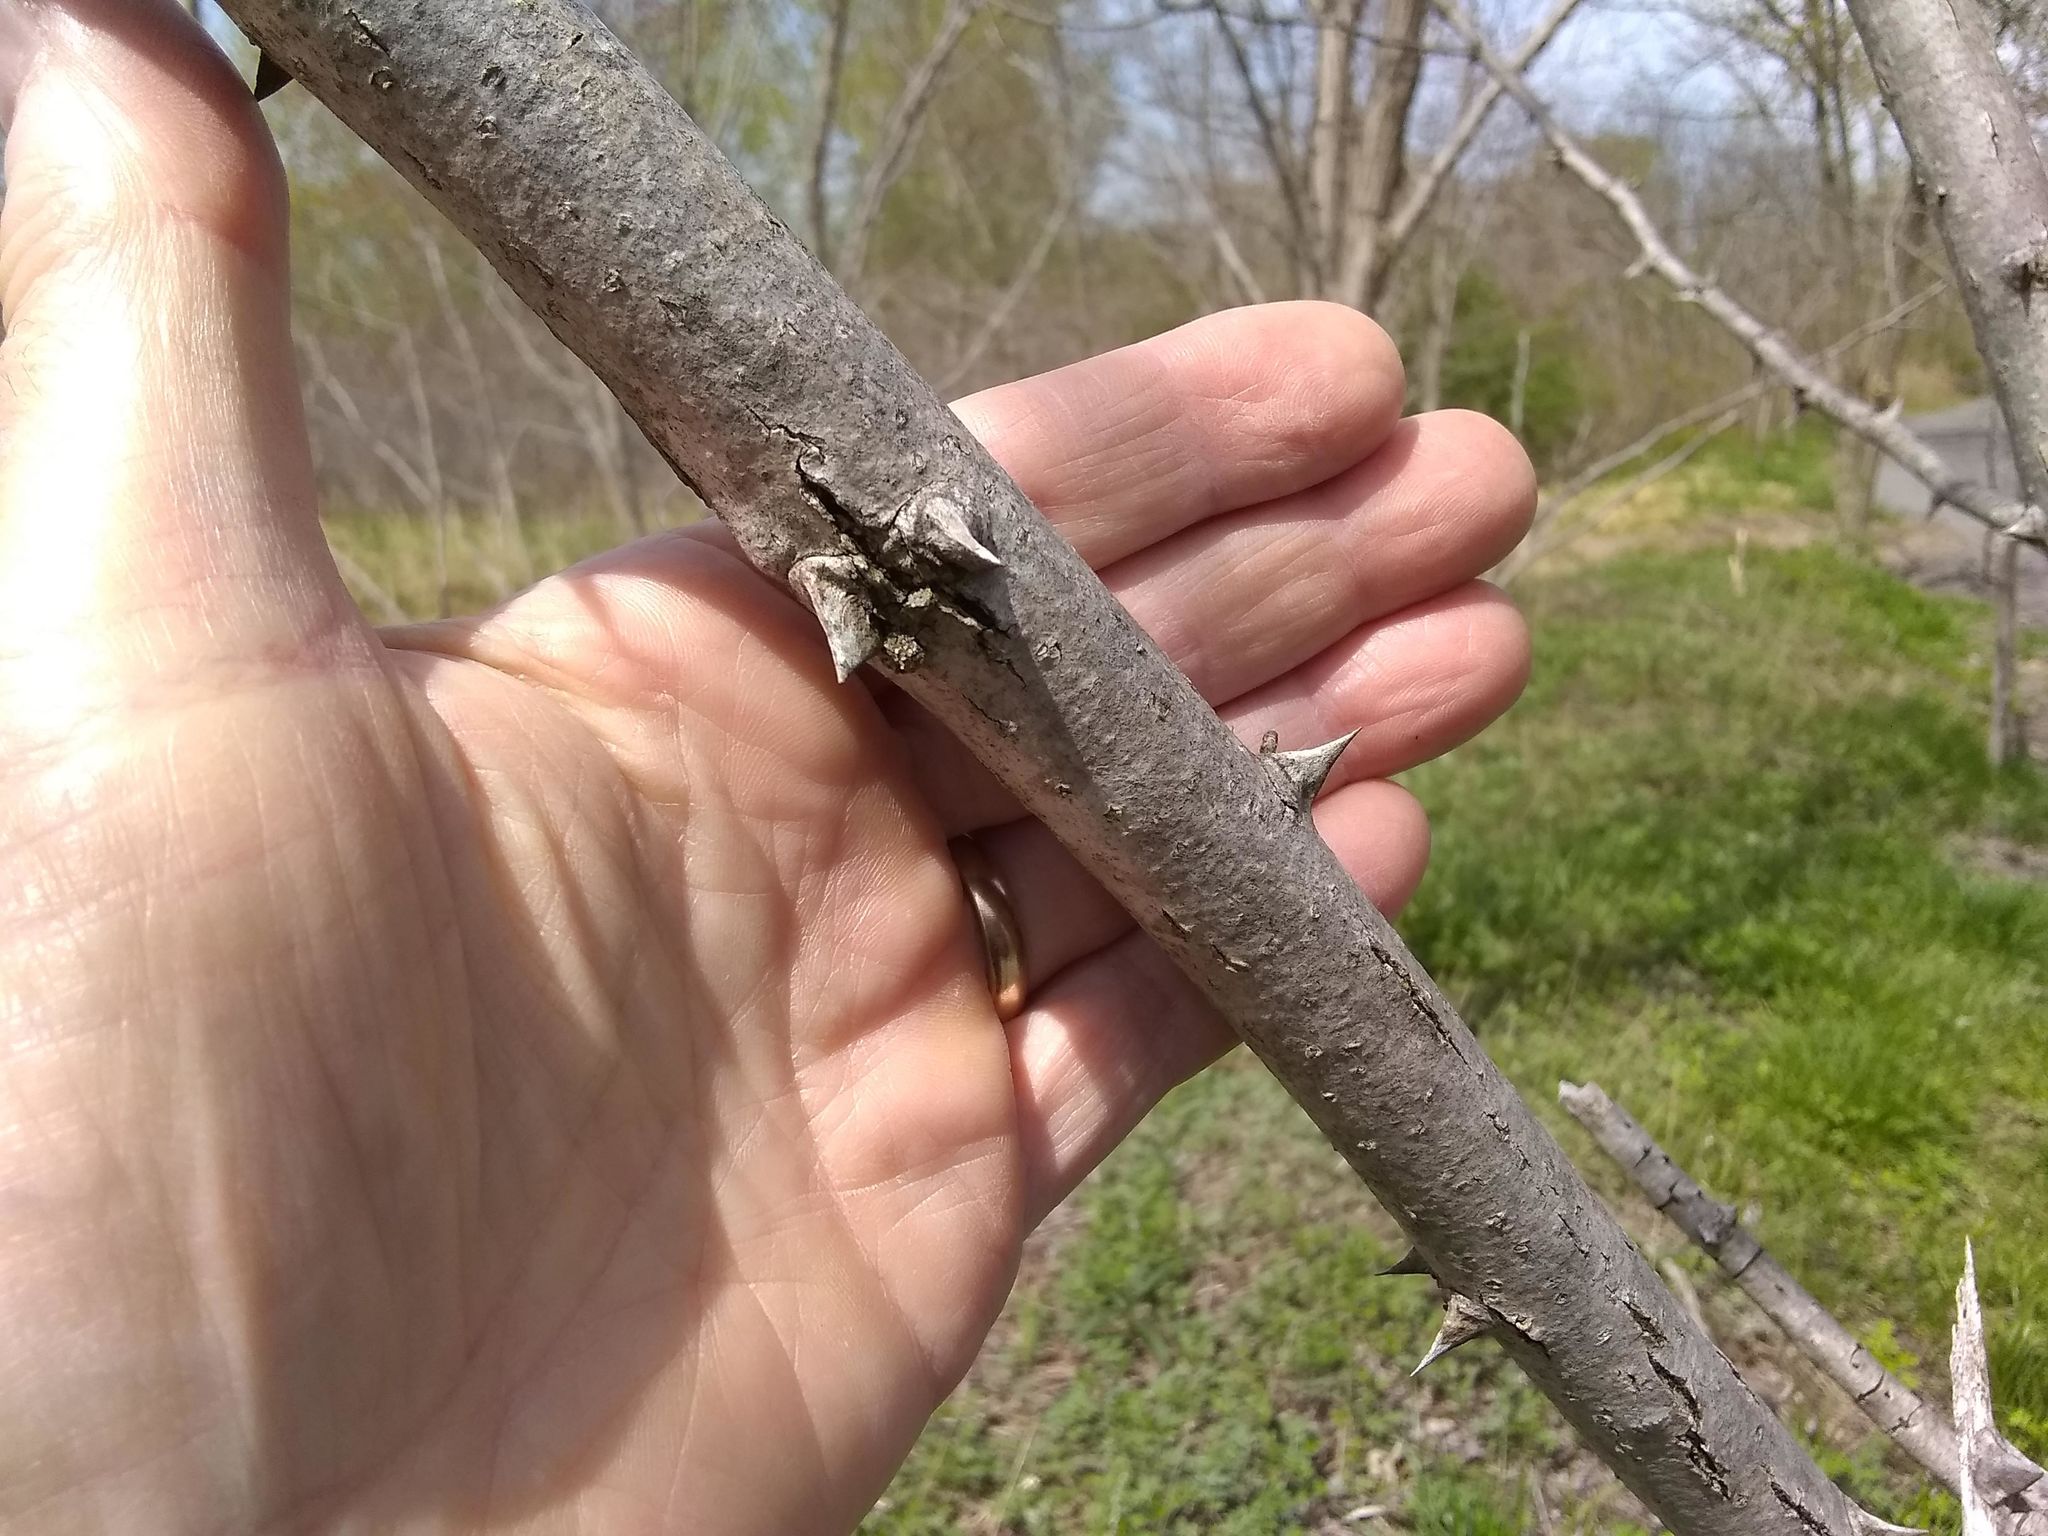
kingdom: Plantae
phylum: Tracheophyta
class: Magnoliopsida
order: Fabales
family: Fabaceae
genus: Robinia
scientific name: Robinia pseudoacacia
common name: Black locust
